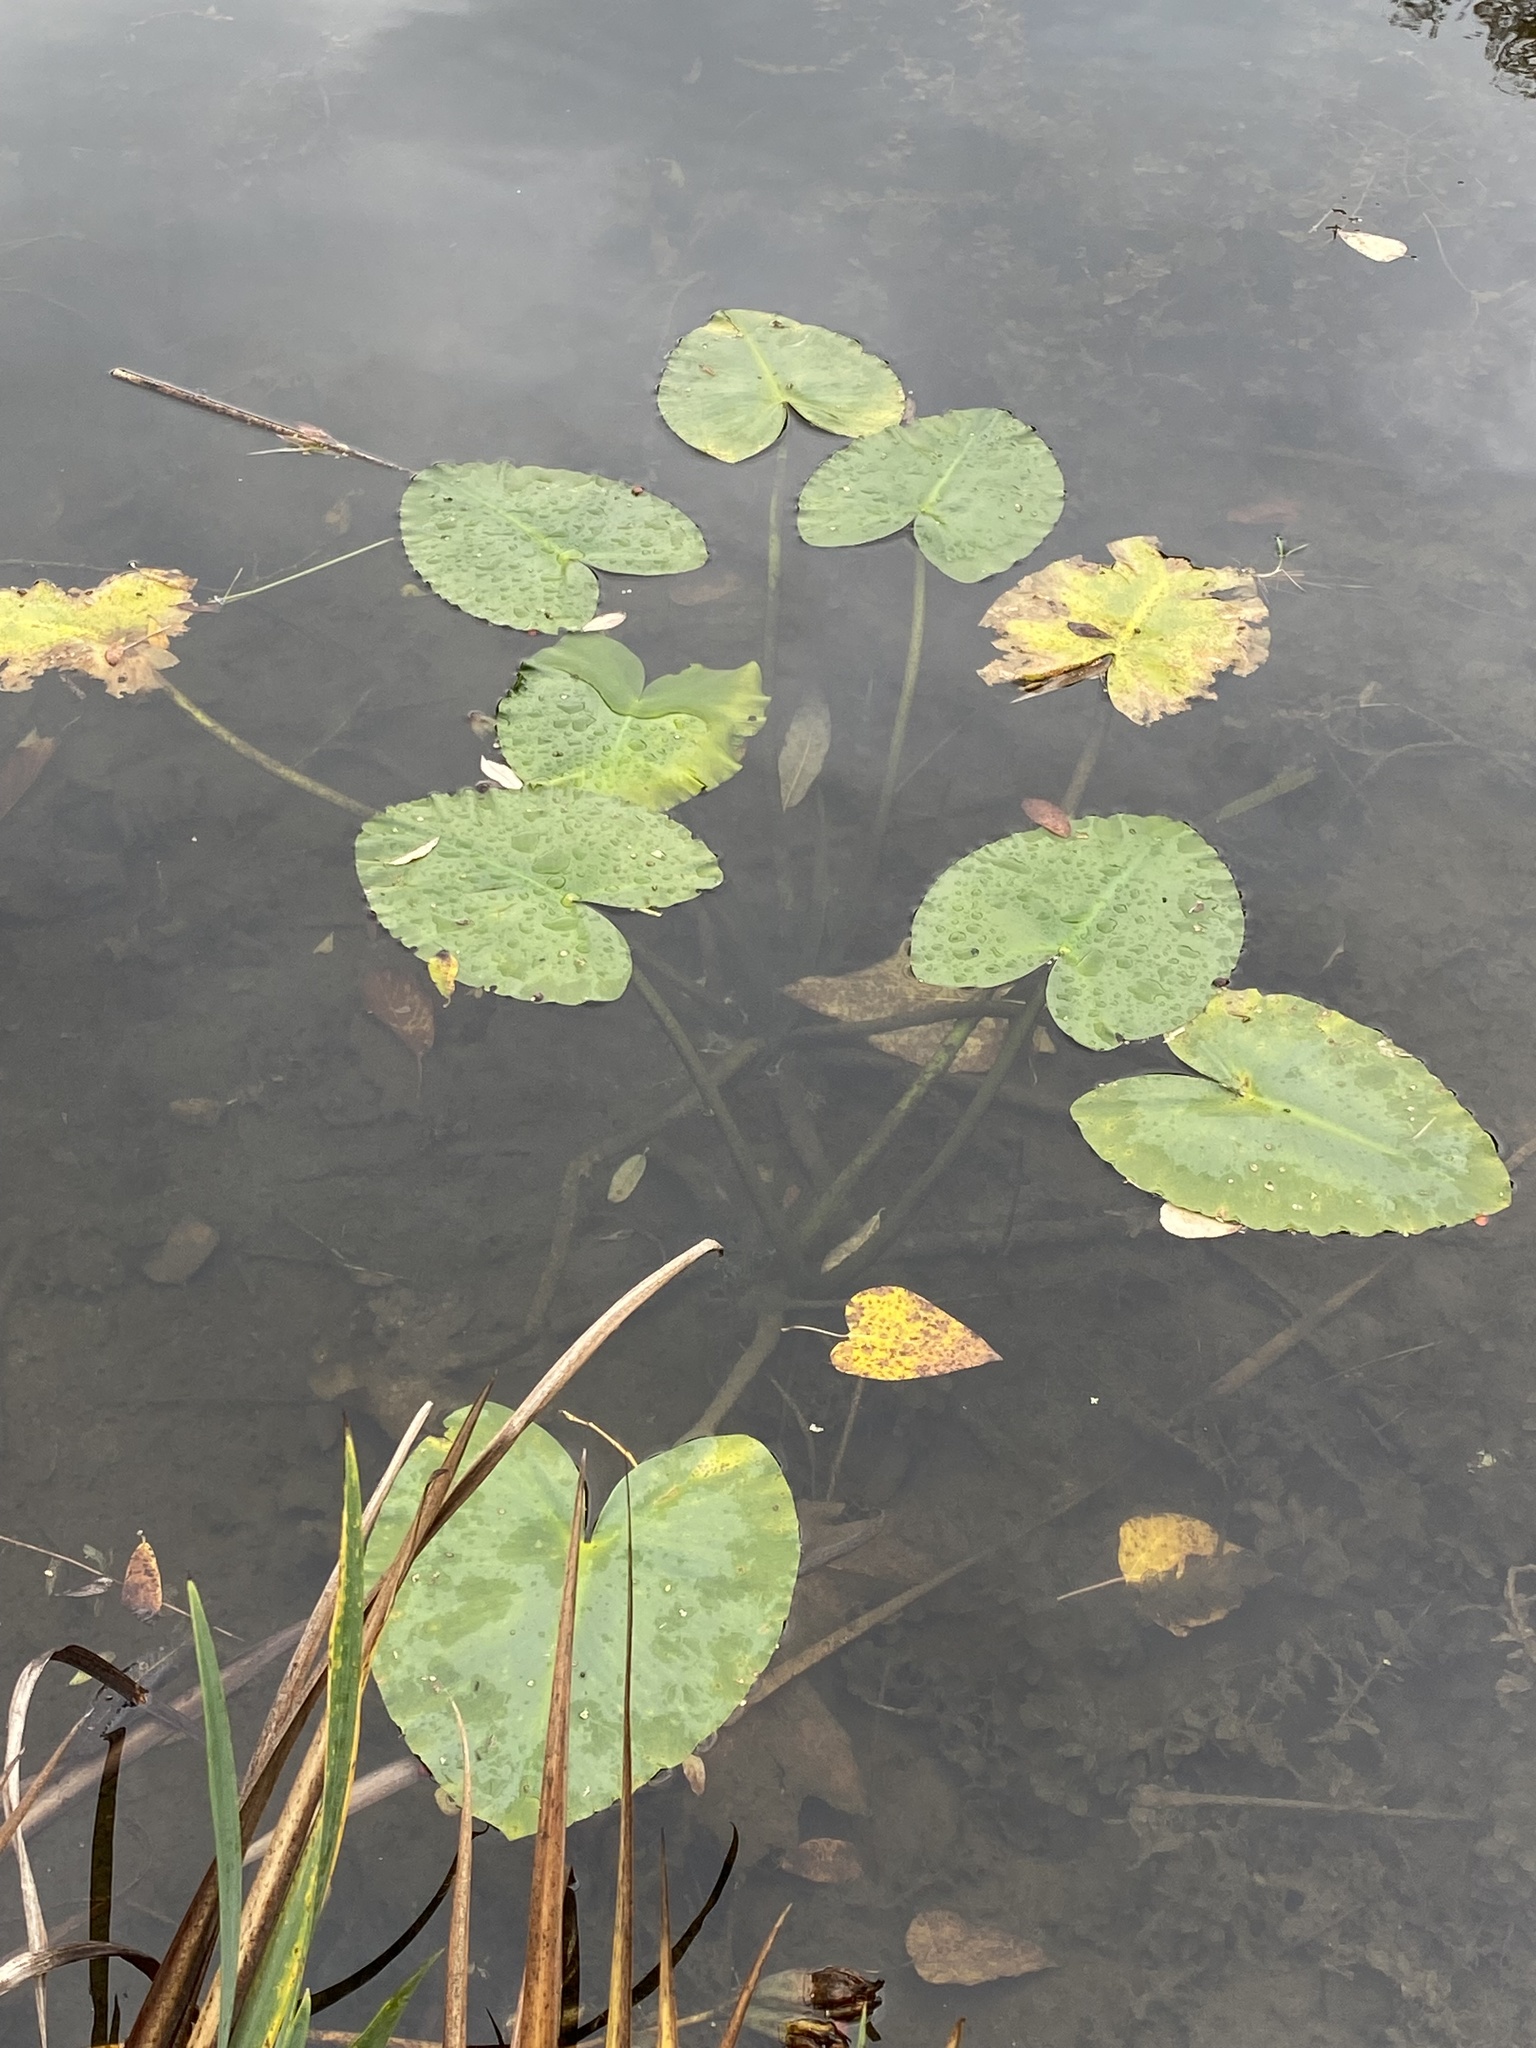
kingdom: Plantae
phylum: Tracheophyta
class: Magnoliopsida
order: Nymphaeales
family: Nymphaeaceae
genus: Nuphar
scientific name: Nuphar polysepala
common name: Rocky mountain cow-lily
